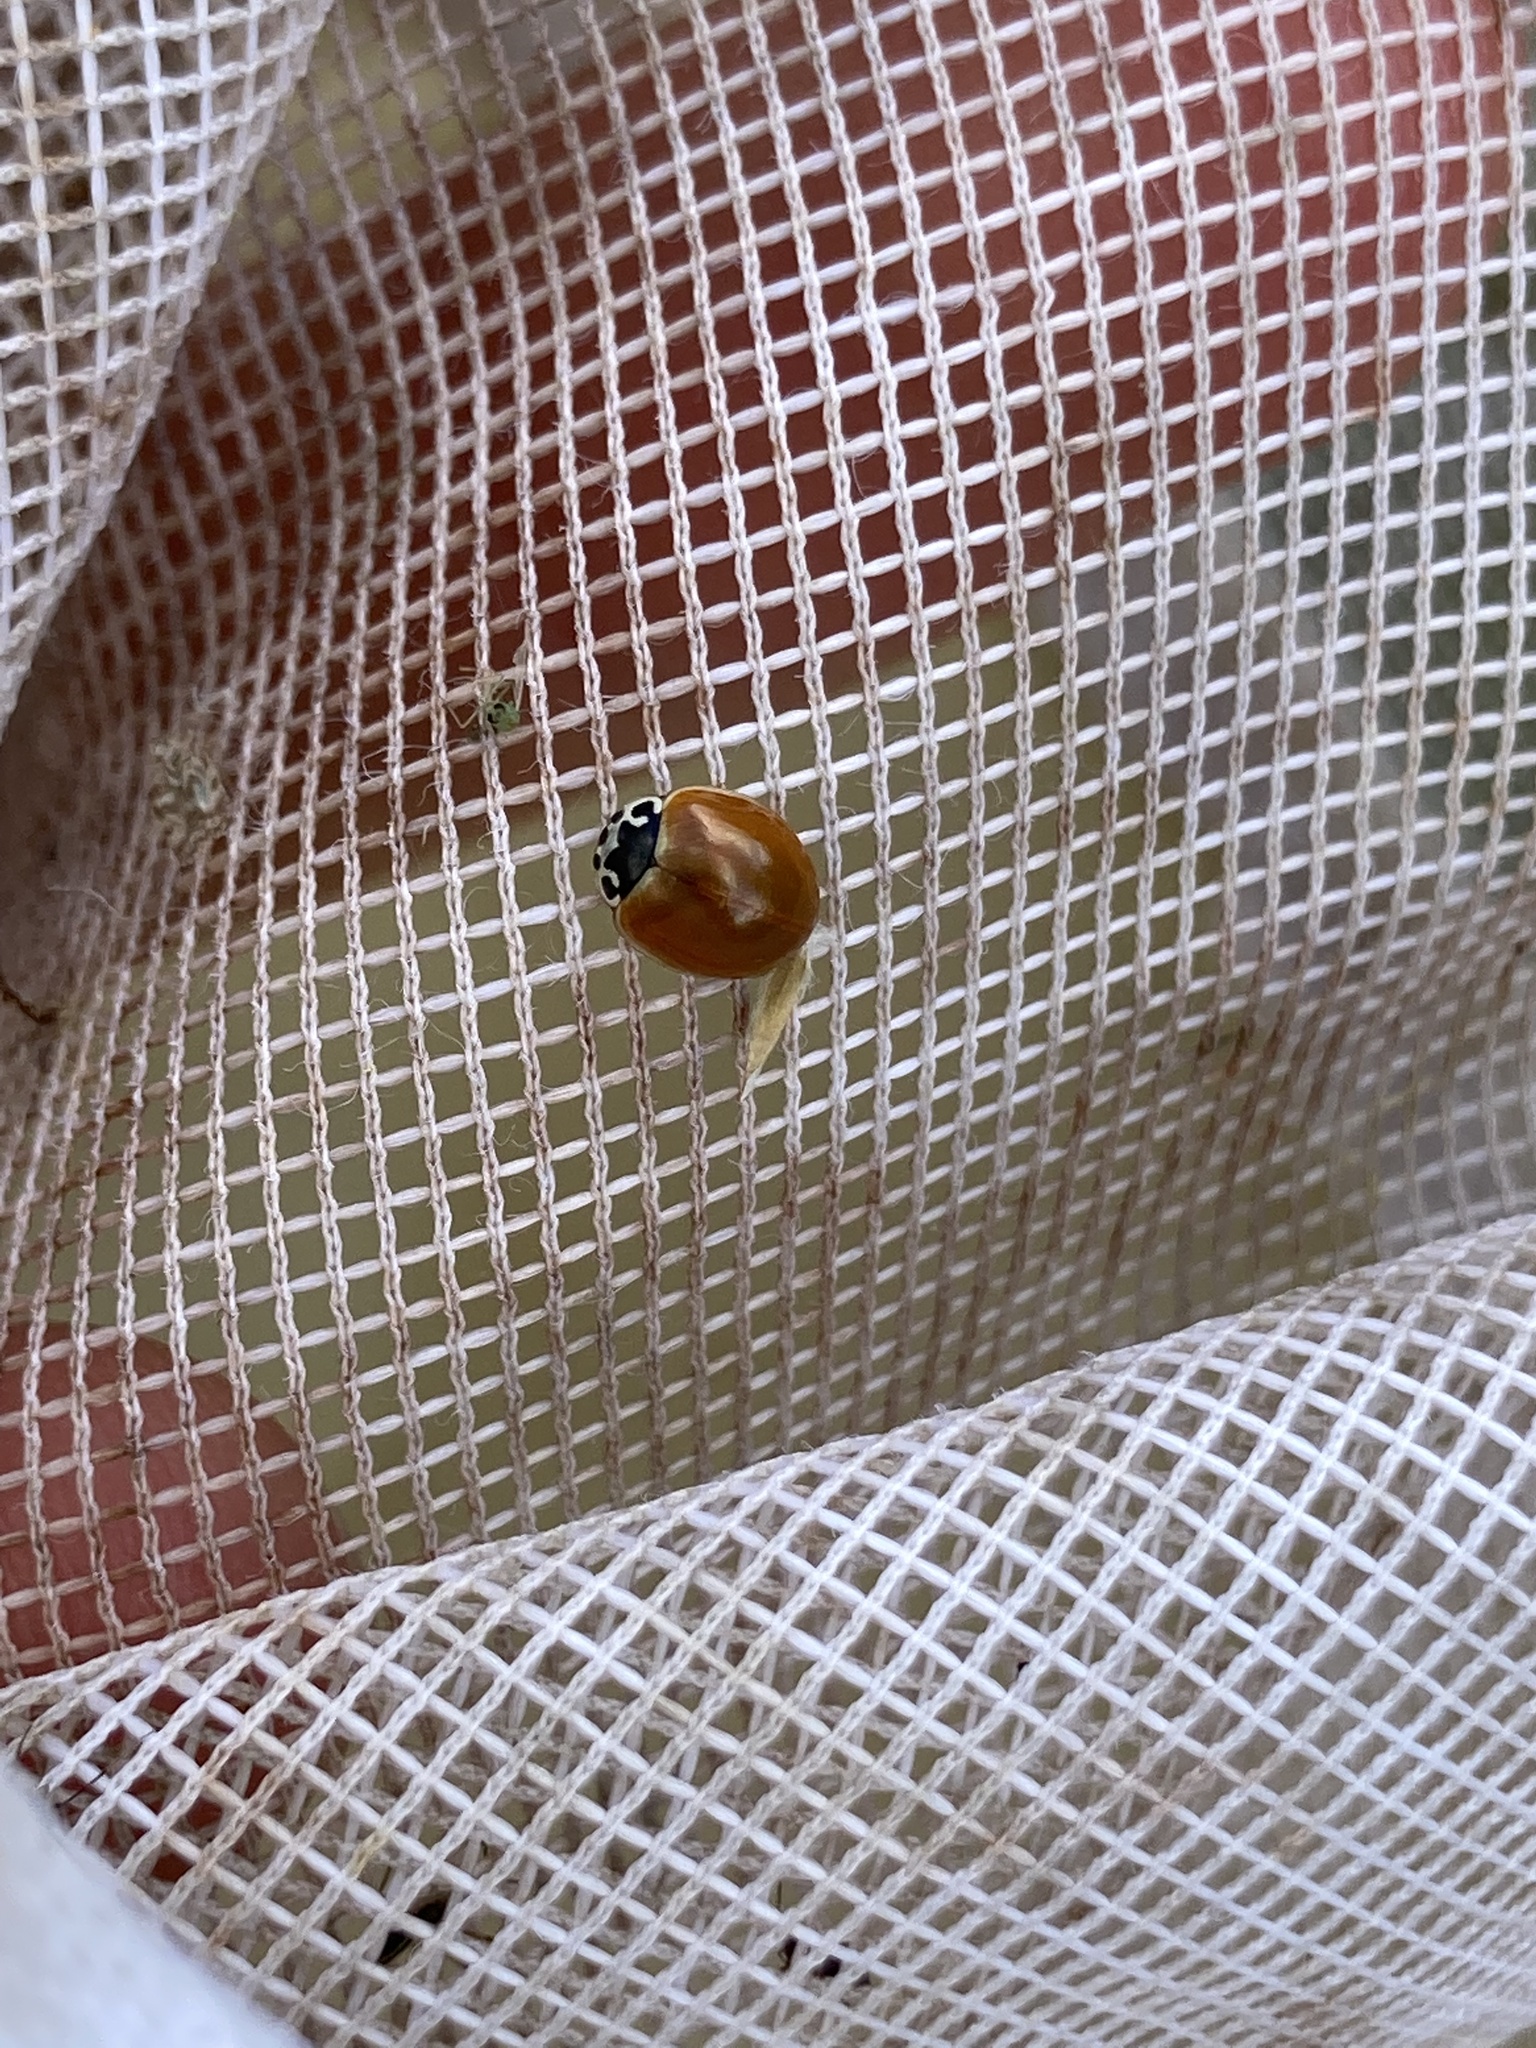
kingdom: Animalia
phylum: Arthropoda
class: Insecta
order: Coleoptera
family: Coccinellidae
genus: Cycloneda
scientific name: Cycloneda munda
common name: Polished lady beetle
